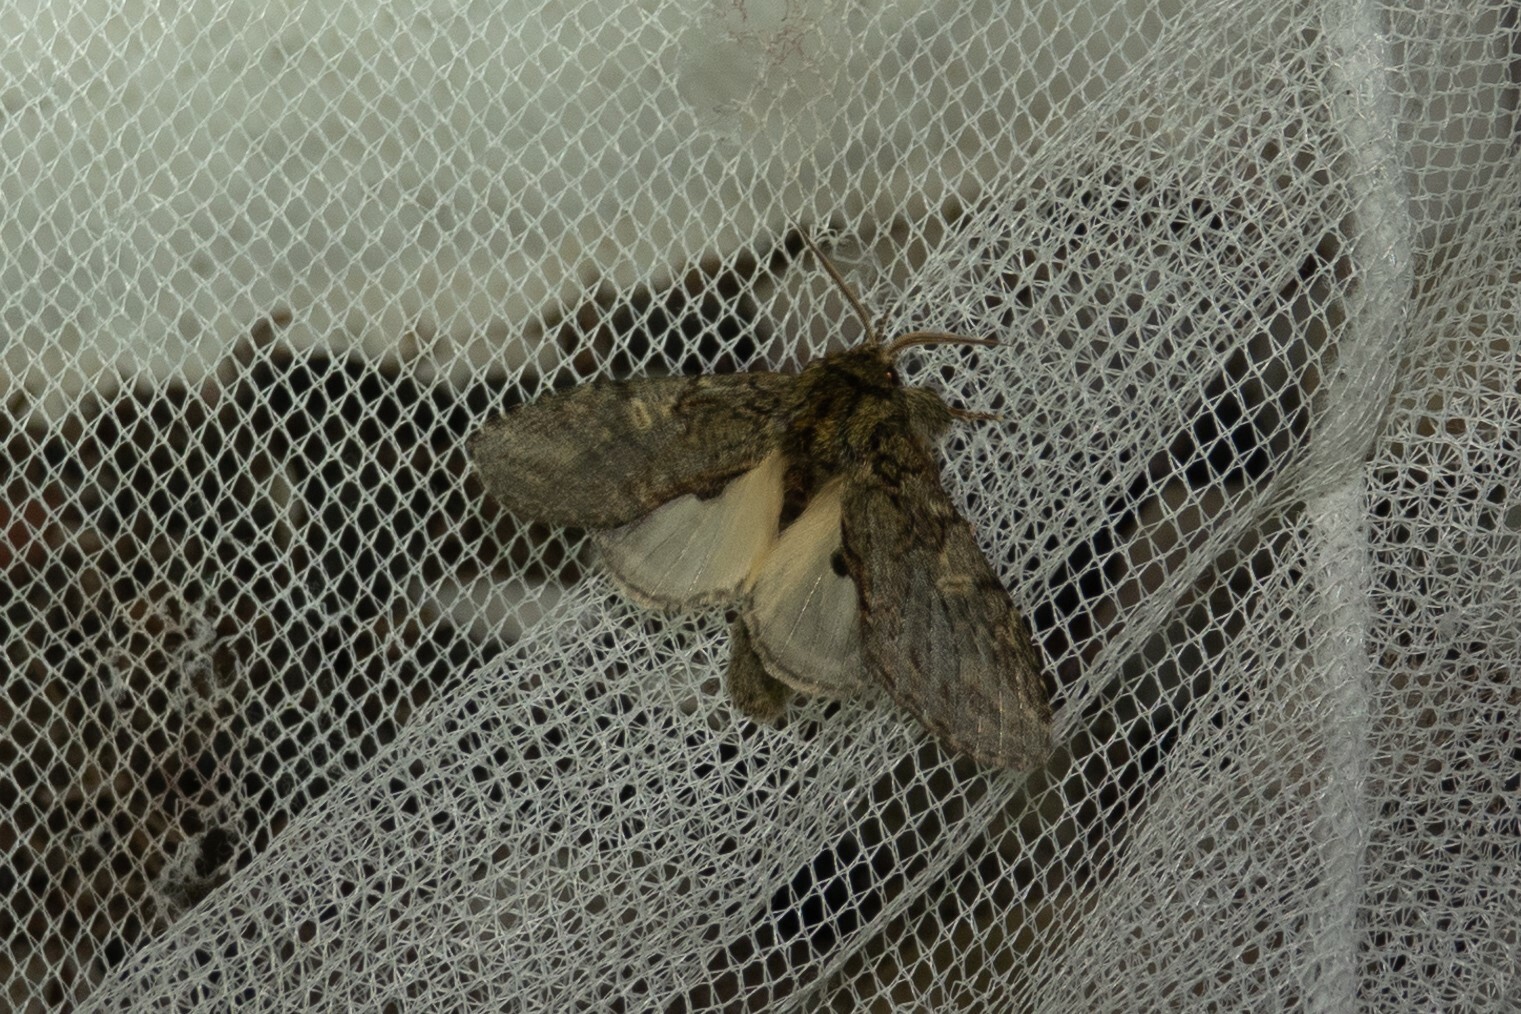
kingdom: Animalia
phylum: Arthropoda
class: Insecta
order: Lepidoptera
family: Notodontidae
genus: Peridea
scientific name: Peridea anceps
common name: Great prominent
